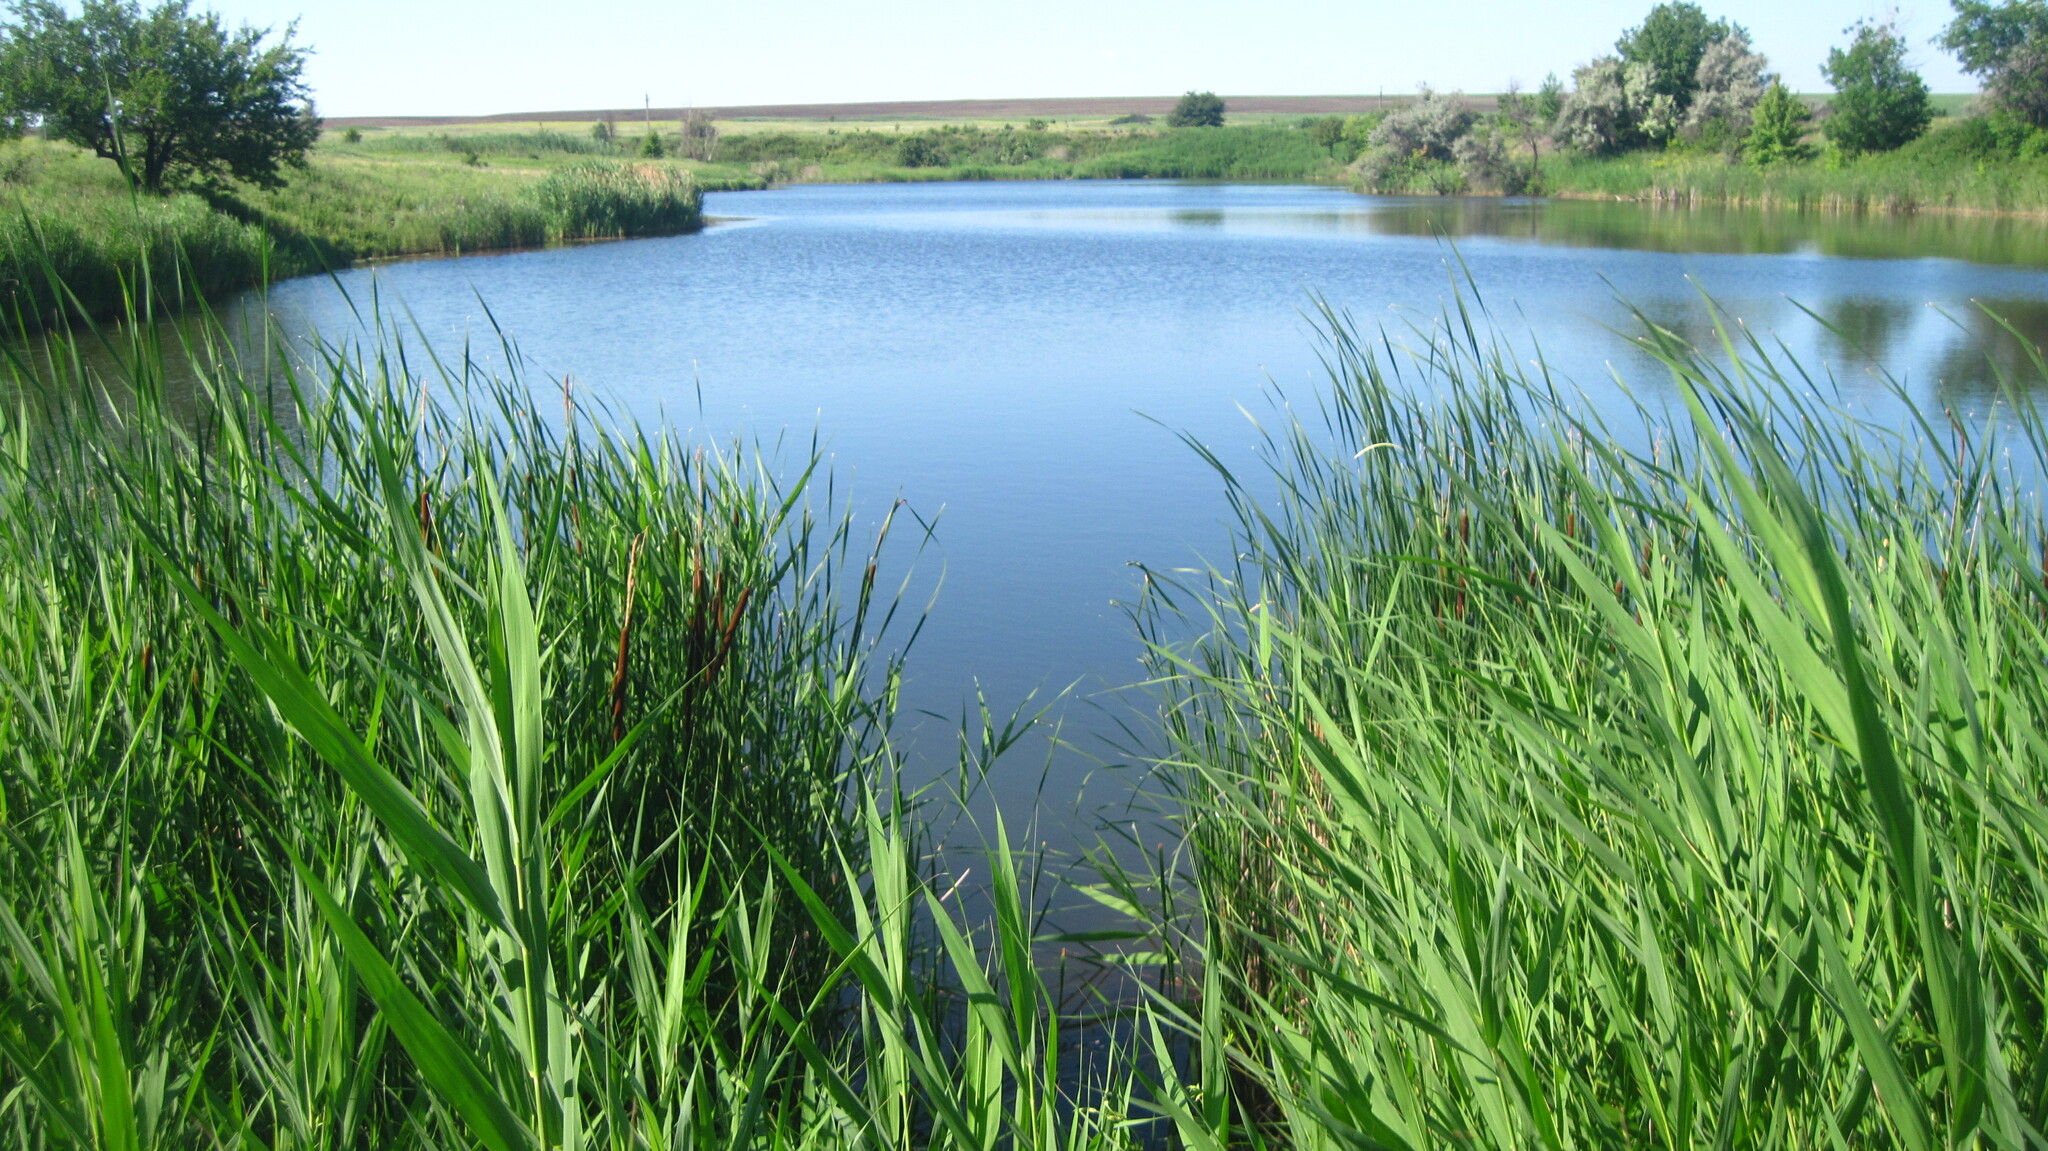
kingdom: Plantae
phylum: Tracheophyta
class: Liliopsida
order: Poales
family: Typhaceae
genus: Typha
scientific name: Typha angustifolia
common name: Lesser bulrush
